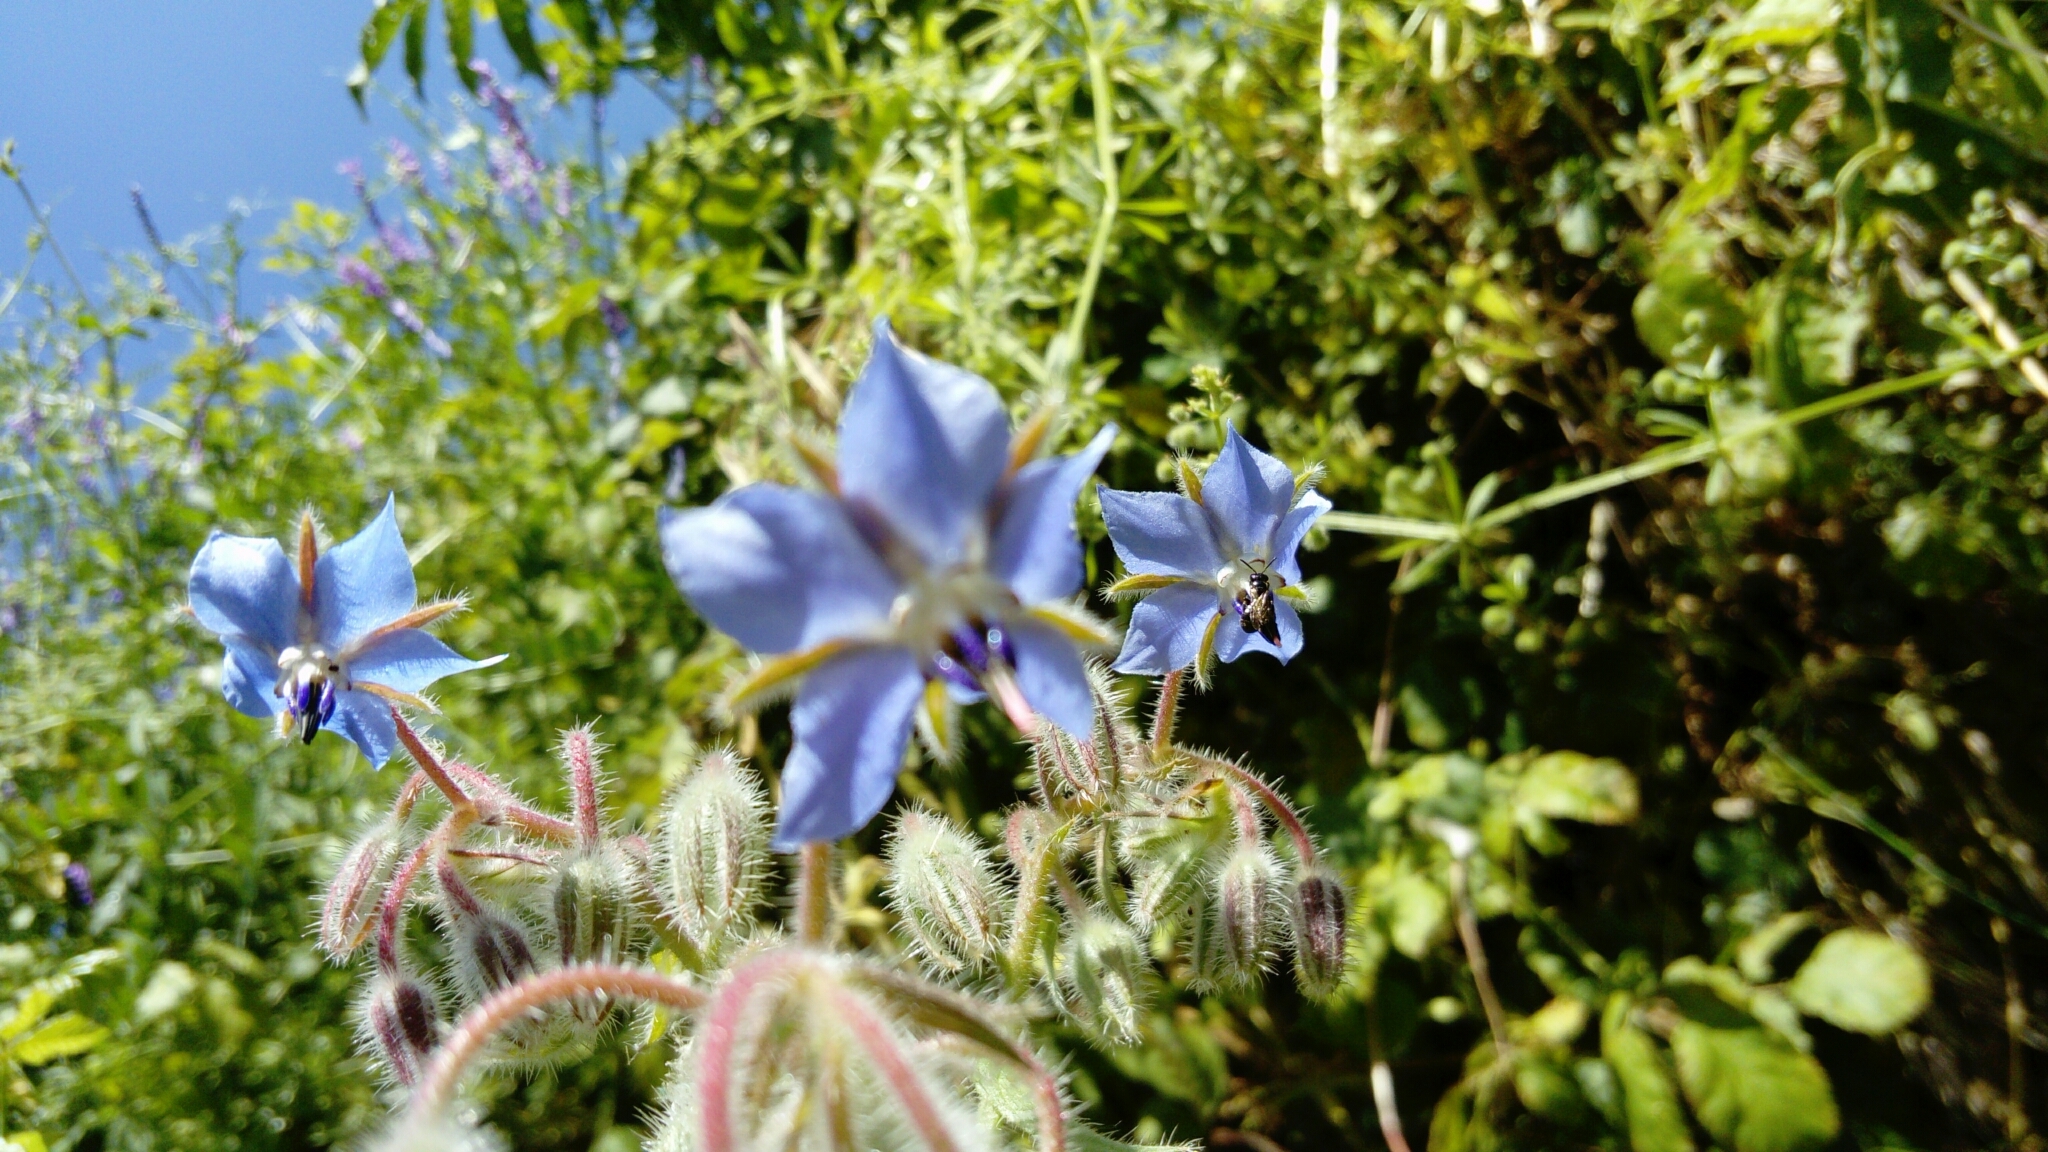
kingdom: Plantae
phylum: Tracheophyta
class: Magnoliopsida
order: Boraginales
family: Boraginaceae
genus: Borago
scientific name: Borago officinalis
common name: Borage
